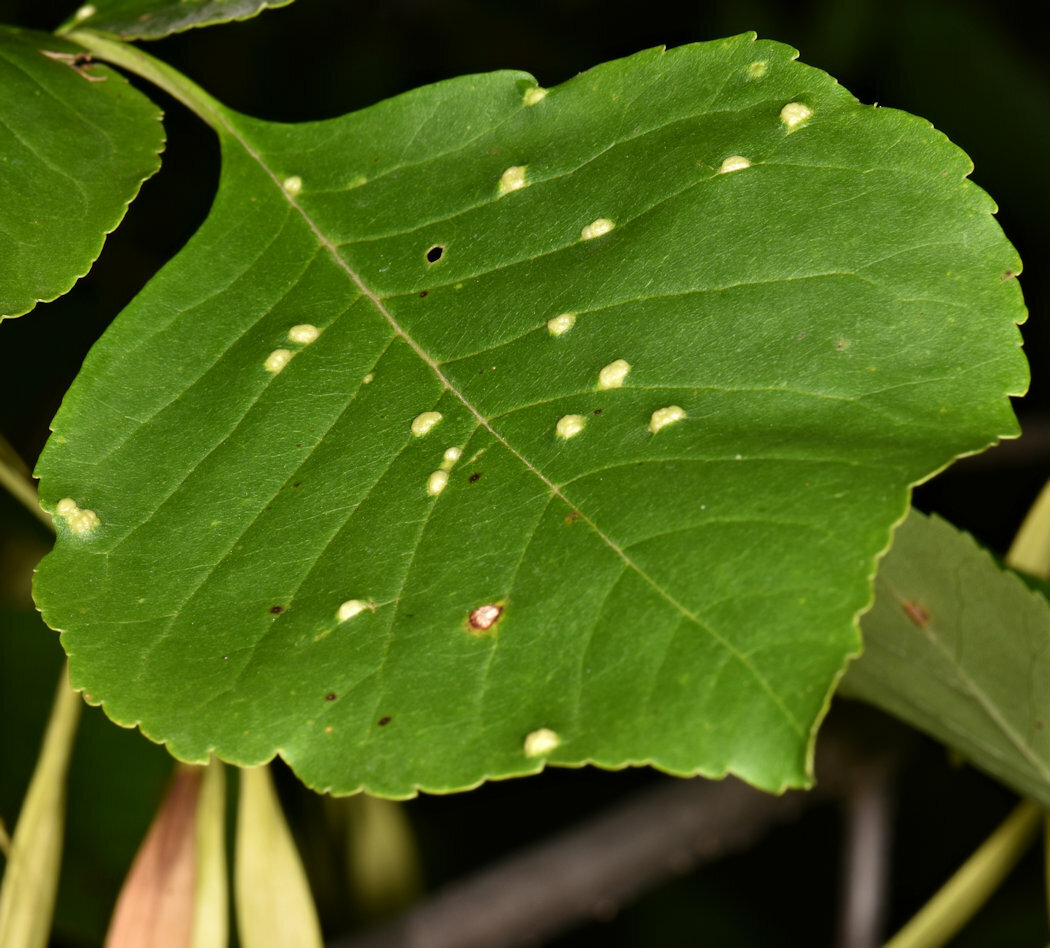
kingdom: Animalia
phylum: Arthropoda
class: Arachnida
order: Trombidiformes
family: Eriophyidae
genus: Aceria
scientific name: Aceria fraxinicola
